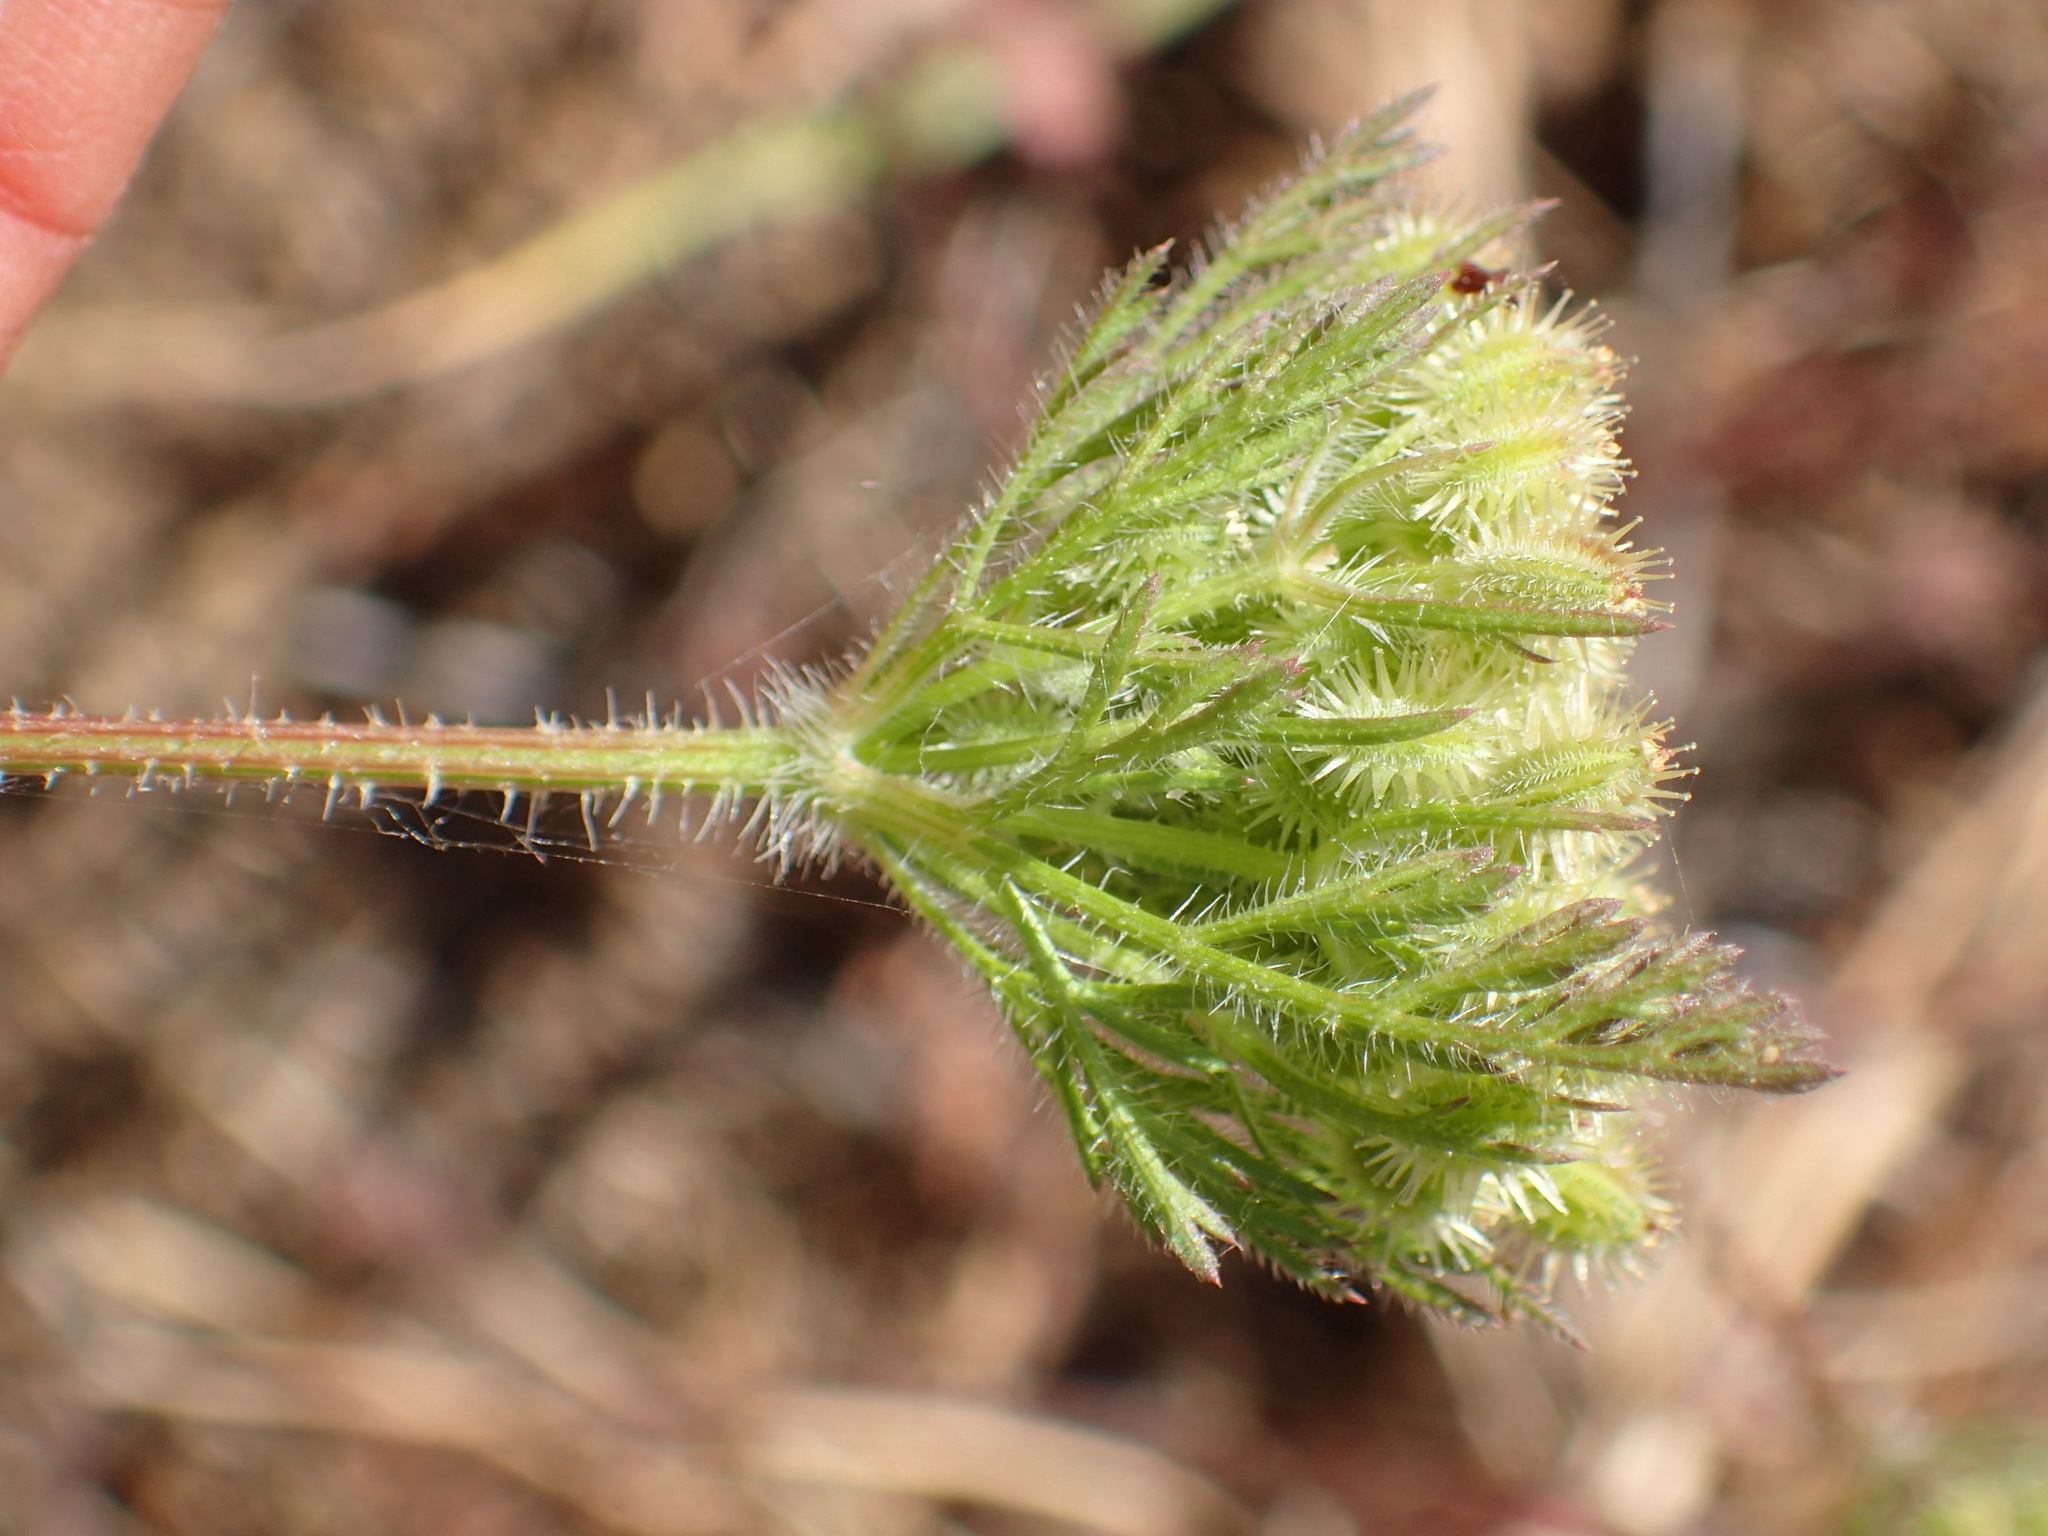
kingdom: Plantae
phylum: Tracheophyta
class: Magnoliopsida
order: Apiales
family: Apiaceae
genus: Daucus
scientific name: Daucus pusillus
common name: Southwest wild carrot
